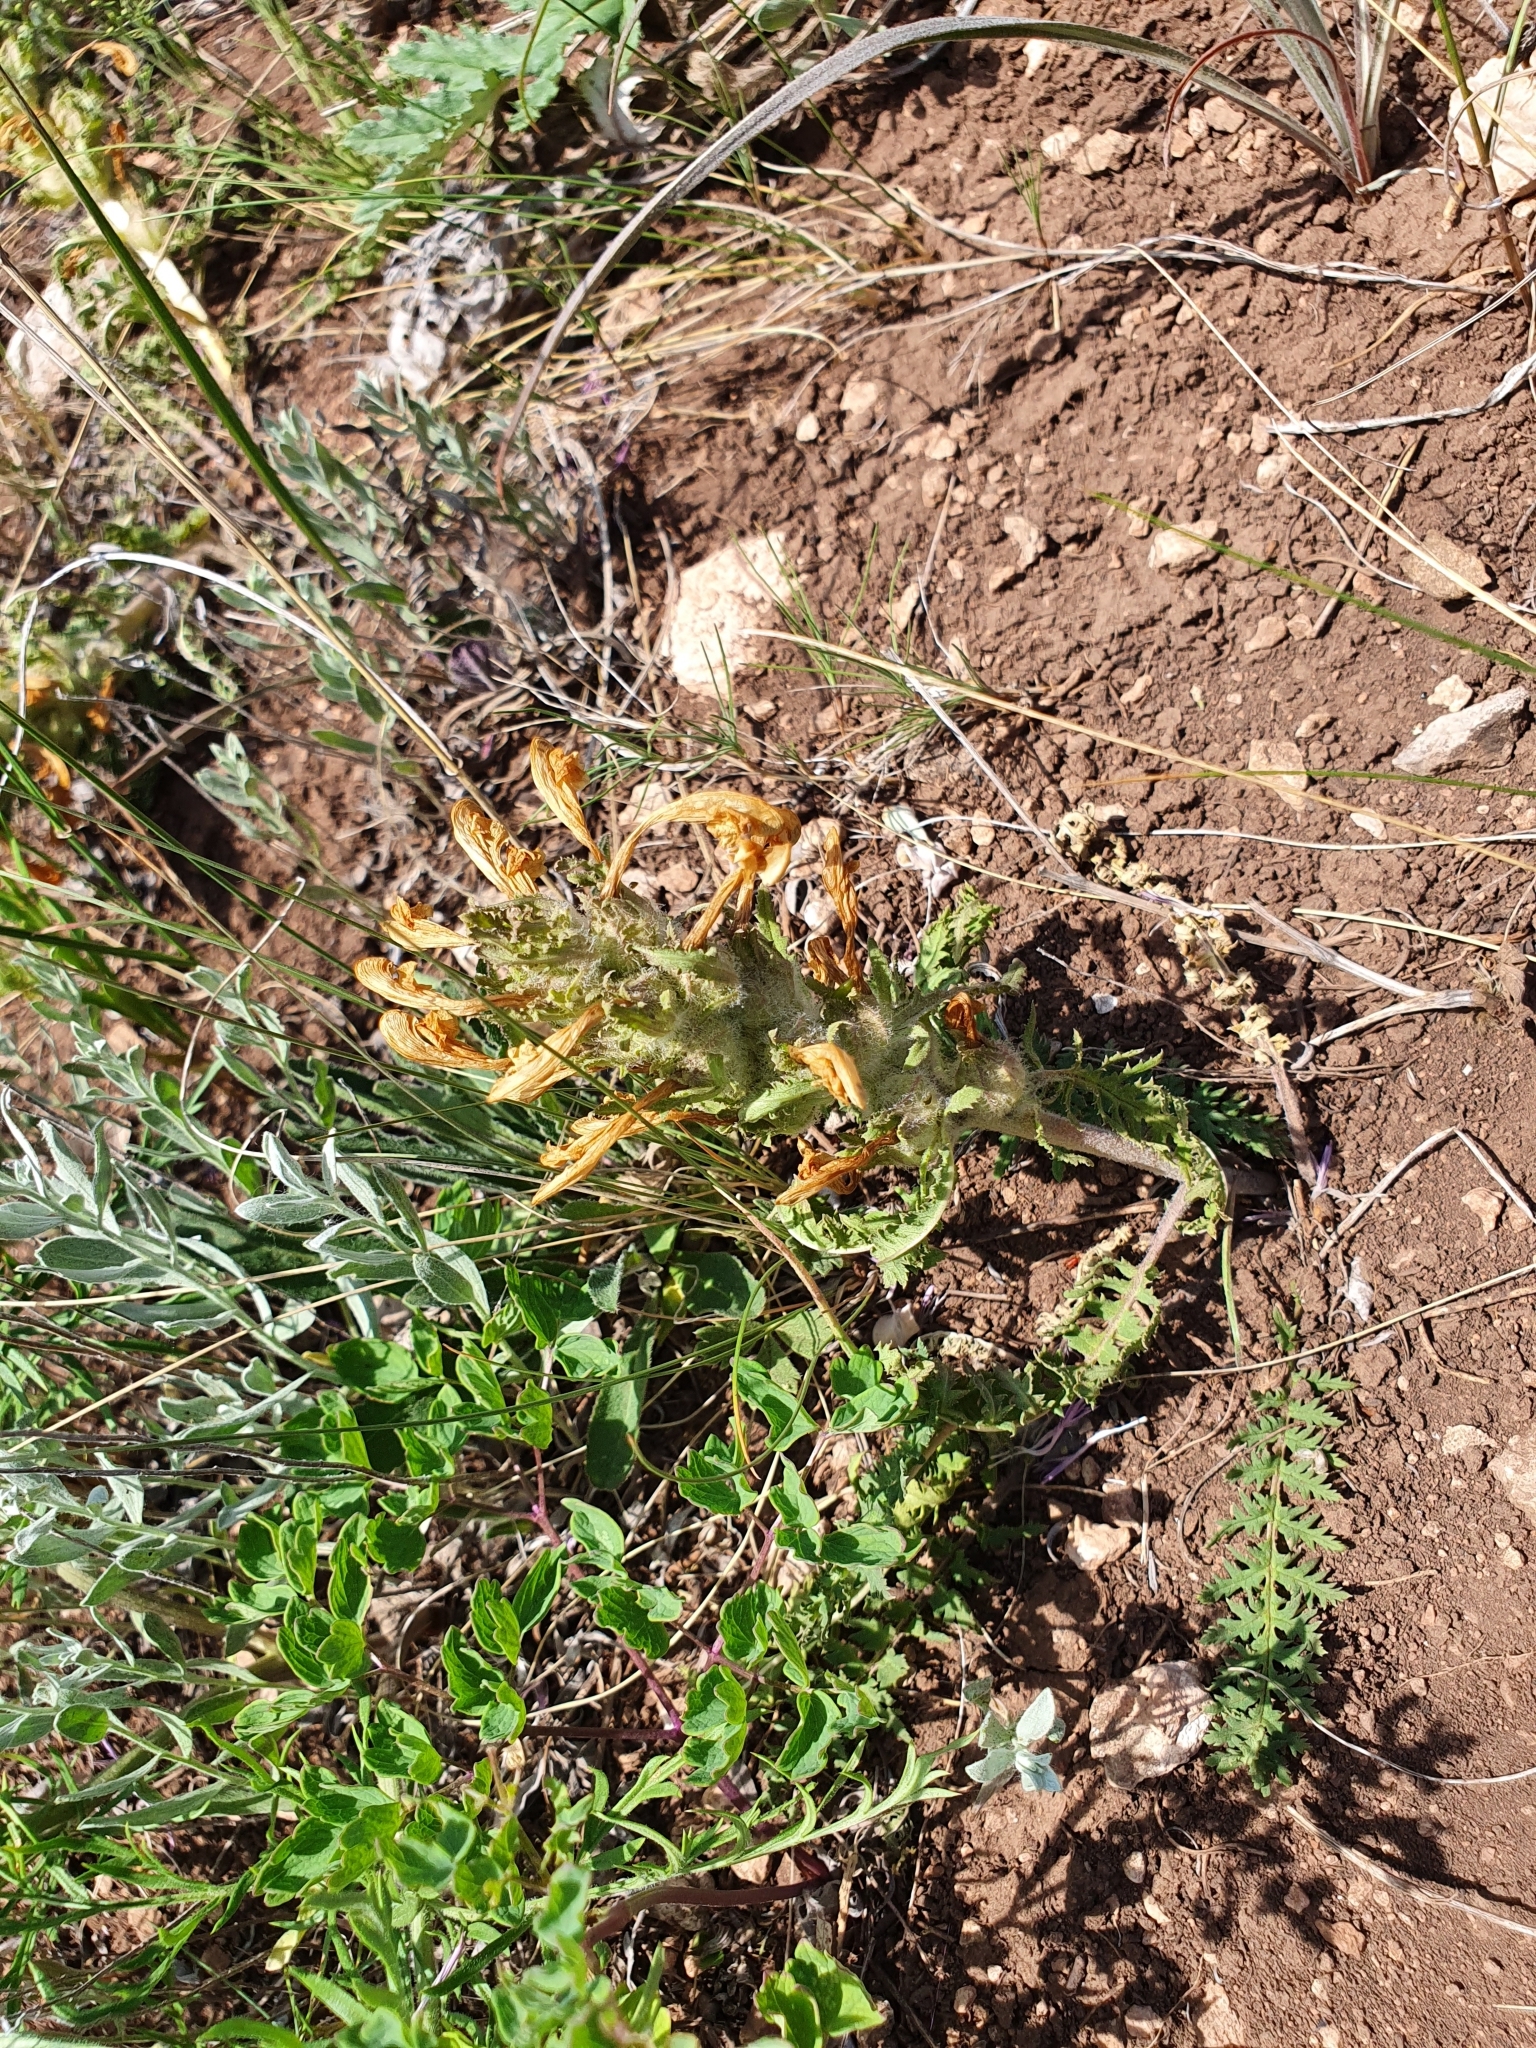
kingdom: Plantae
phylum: Tracheophyta
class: Magnoliopsida
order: Lamiales
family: Orobanchaceae
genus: Pedicularis
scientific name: Pedicularis physocalyx
